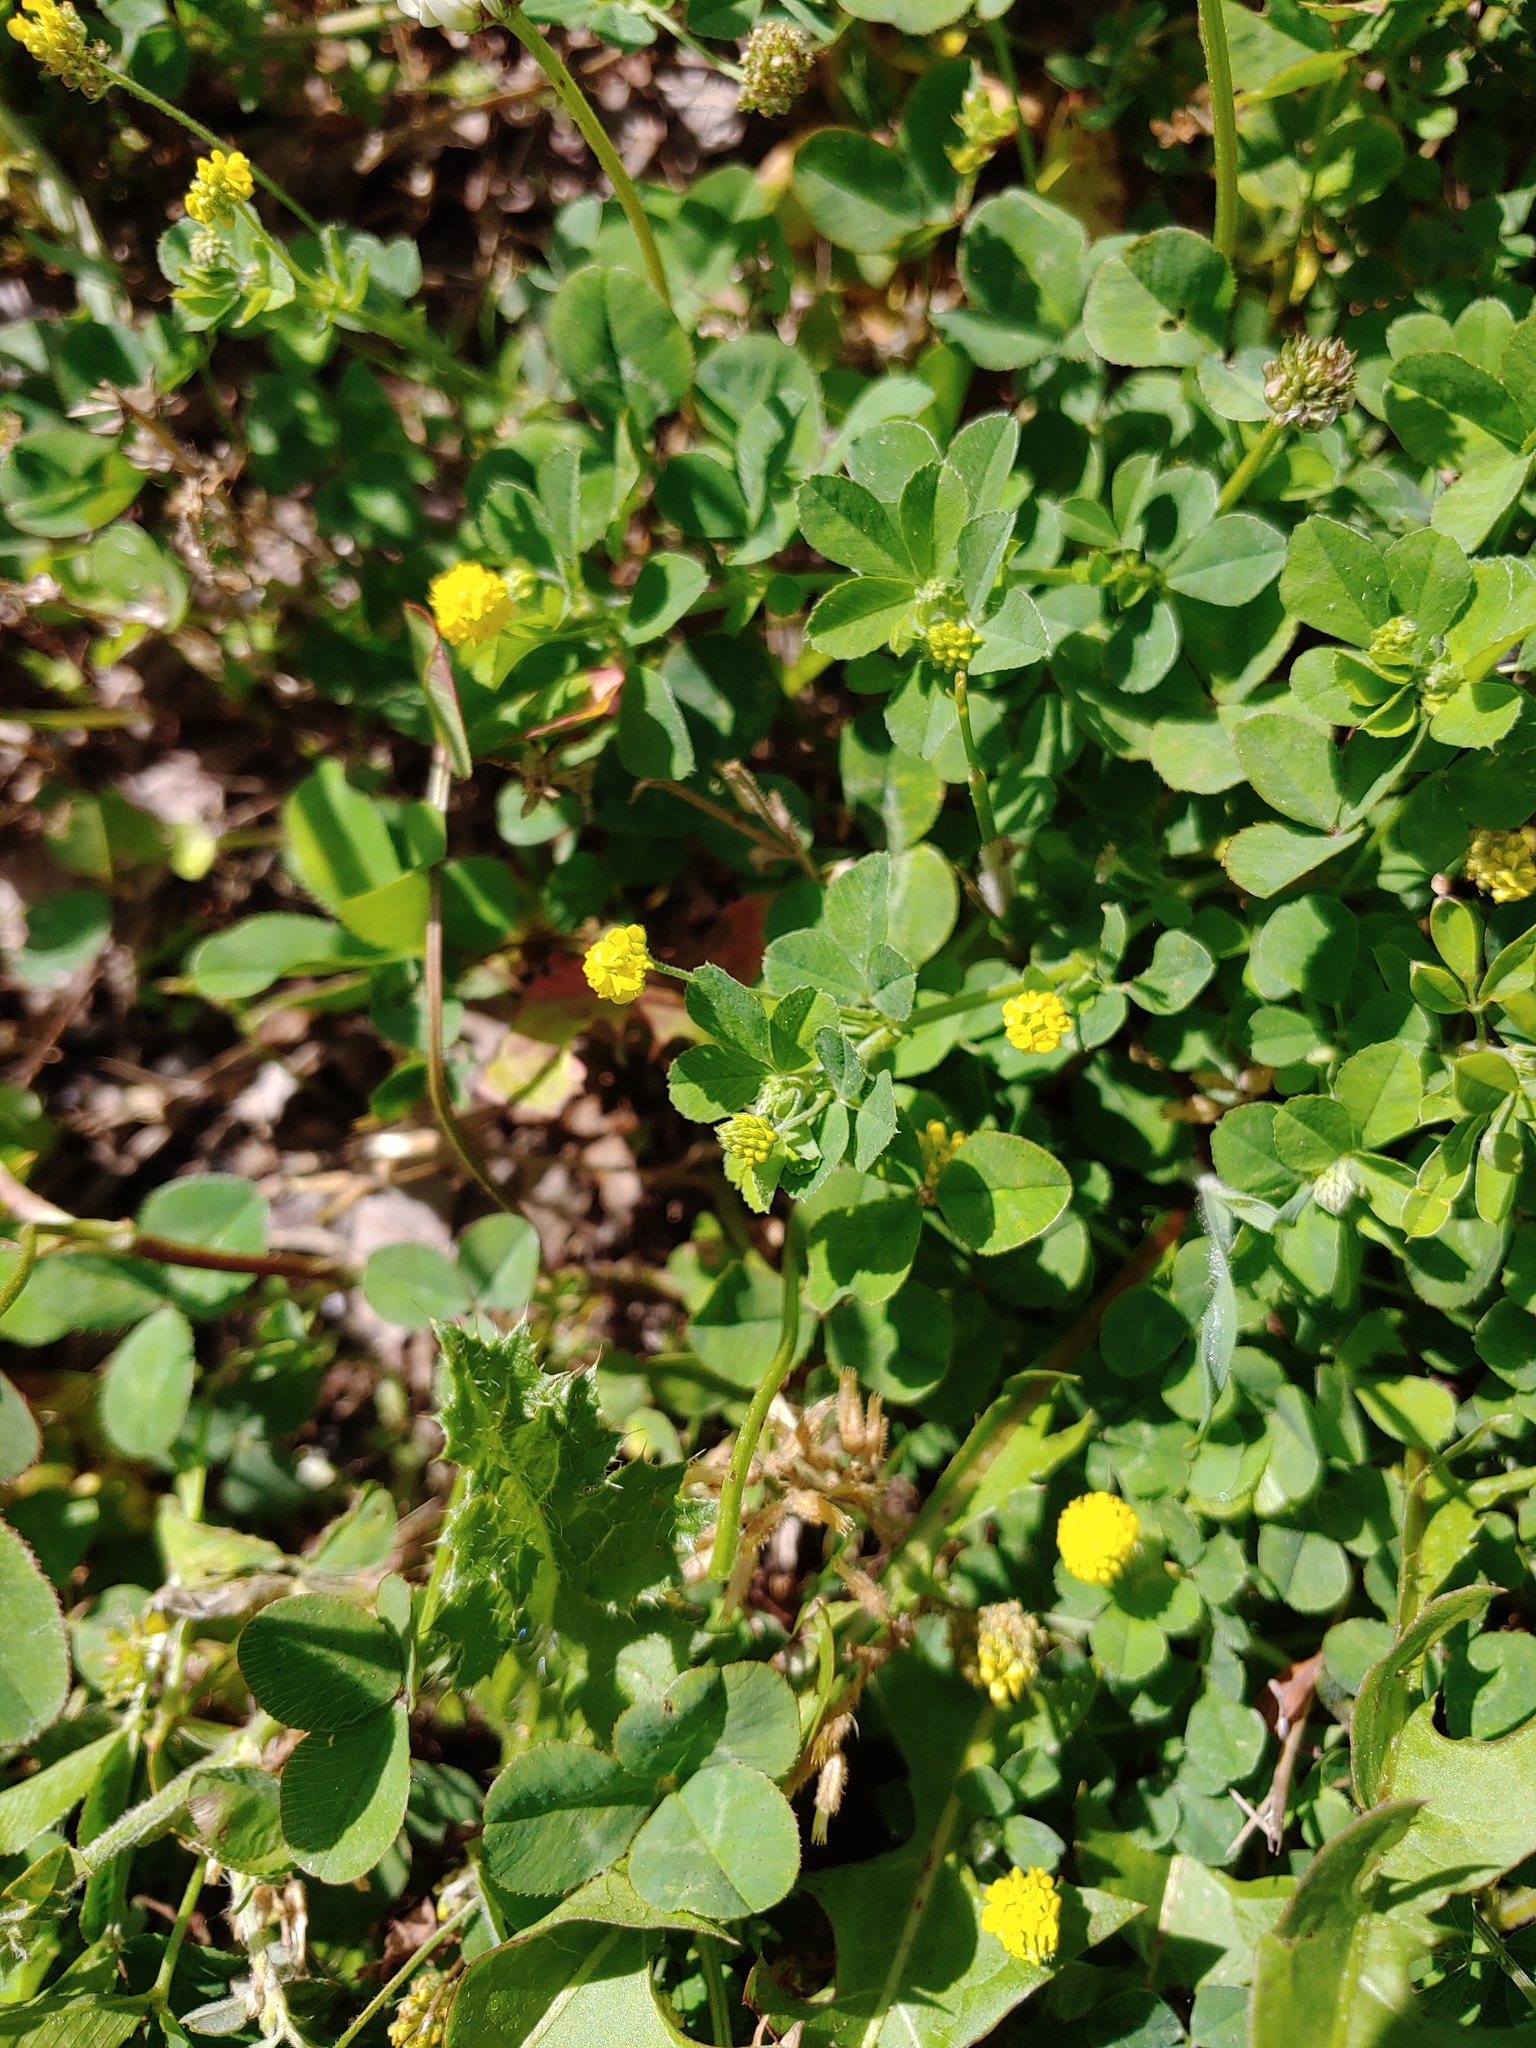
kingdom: Plantae
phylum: Tracheophyta
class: Magnoliopsida
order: Fabales
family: Fabaceae
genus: Medicago
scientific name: Medicago lupulina
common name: Black medick
